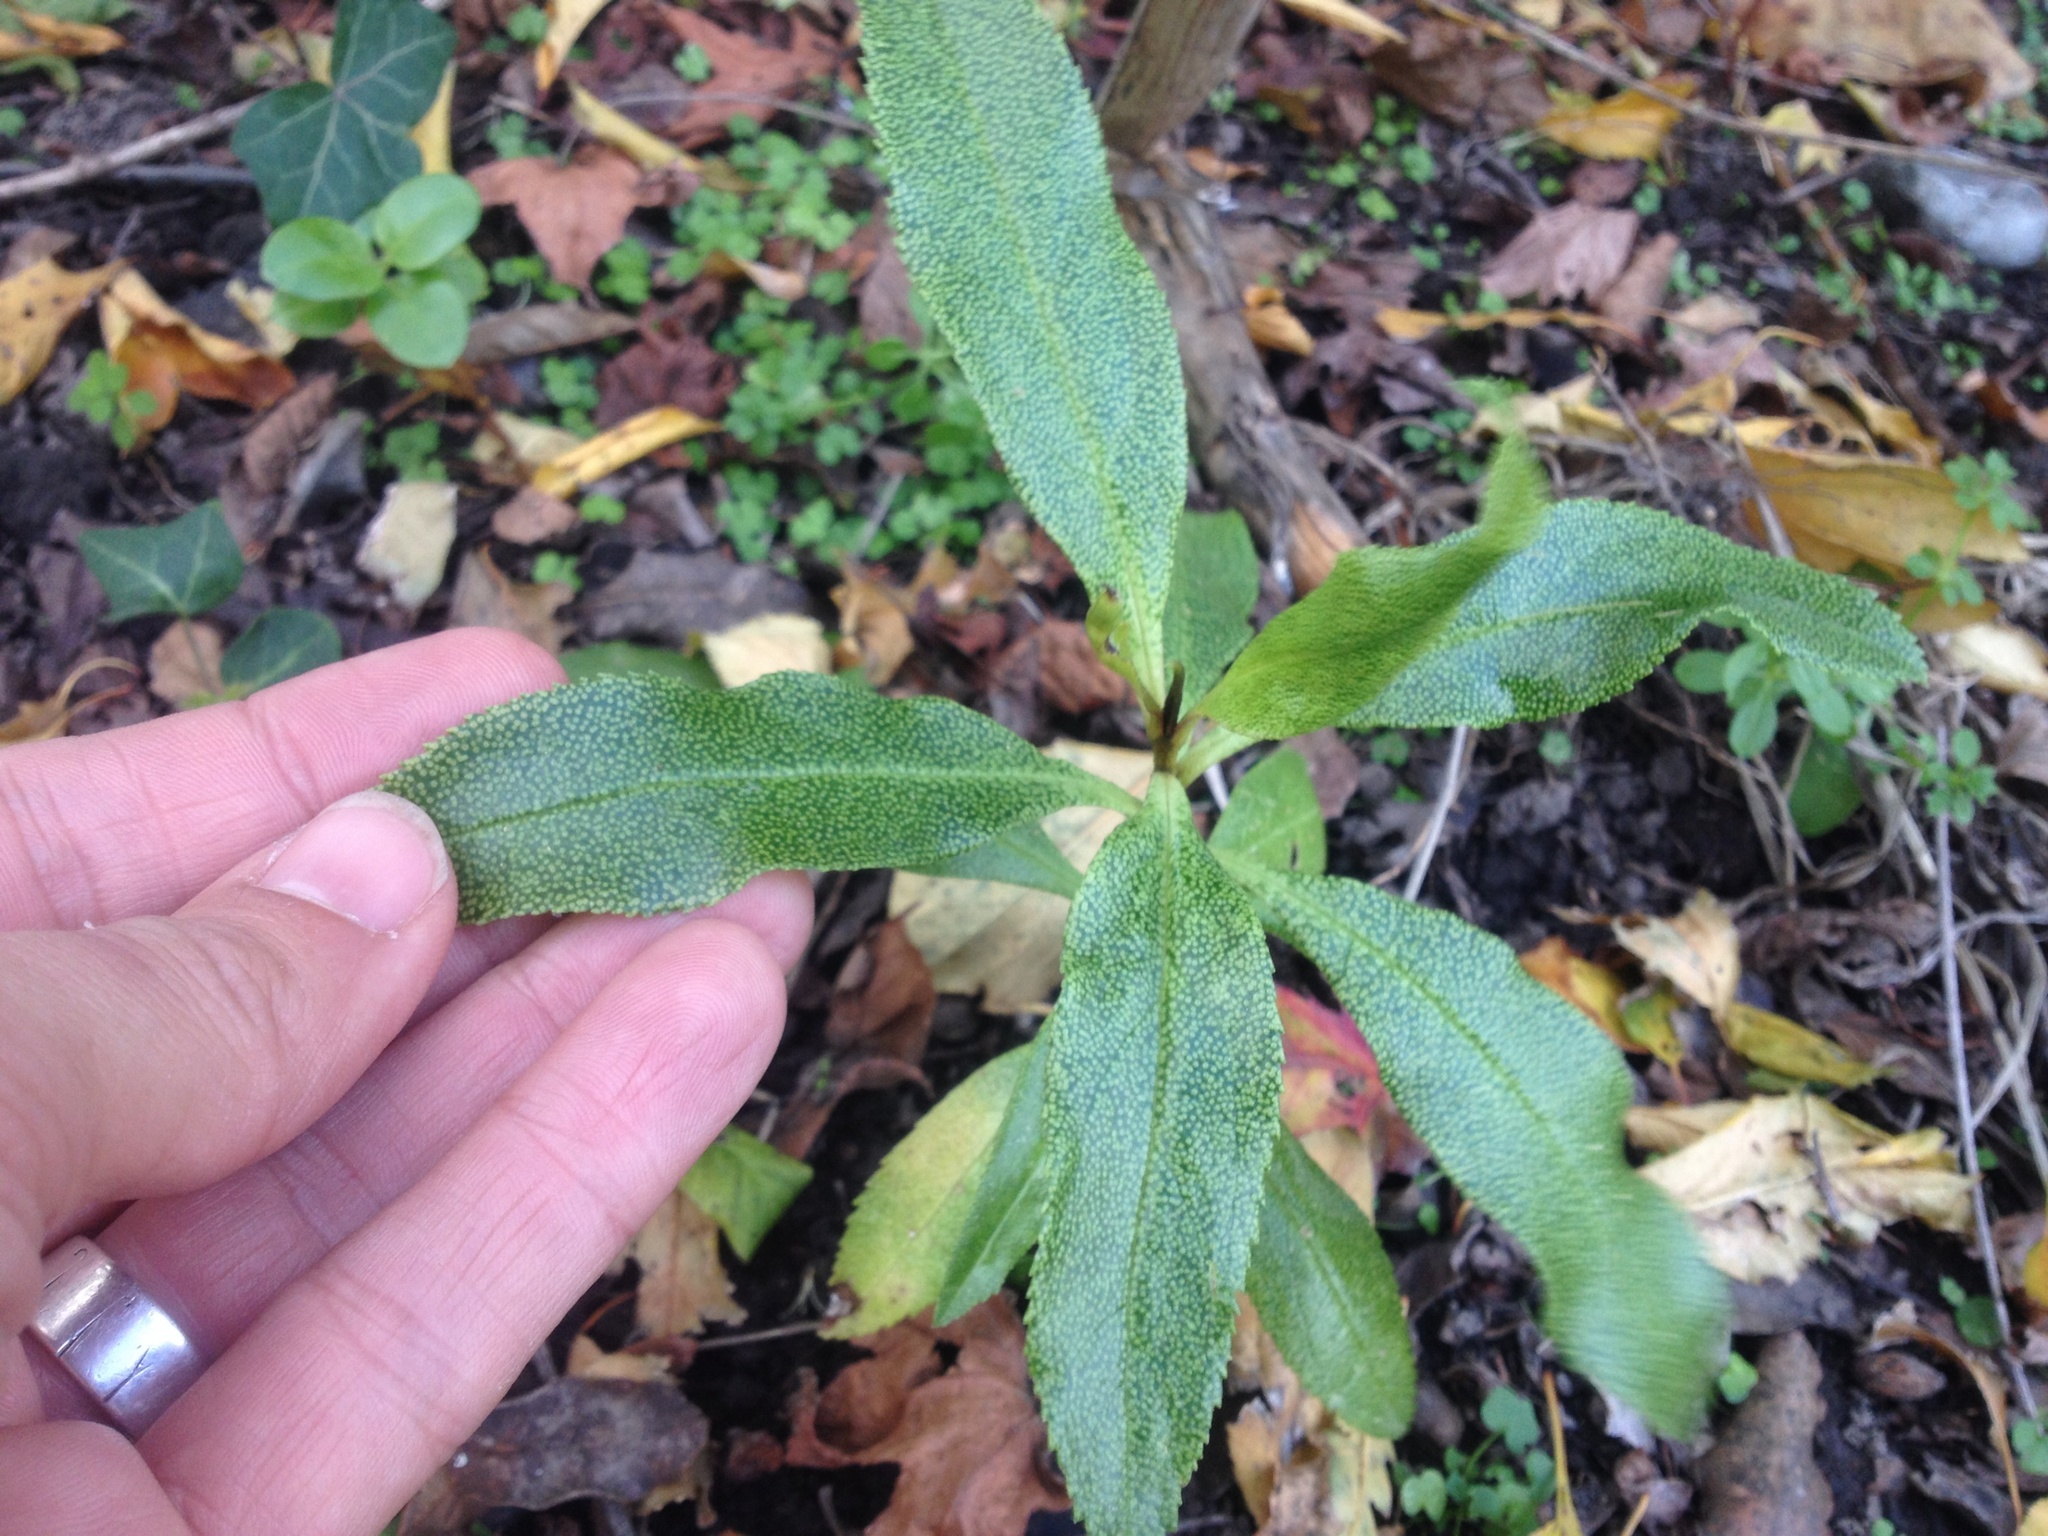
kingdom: Plantae
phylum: Tracheophyta
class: Magnoliopsida
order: Lamiales
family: Scrophulariaceae
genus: Myoporum
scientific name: Myoporum laetum
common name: Ngaio tree
